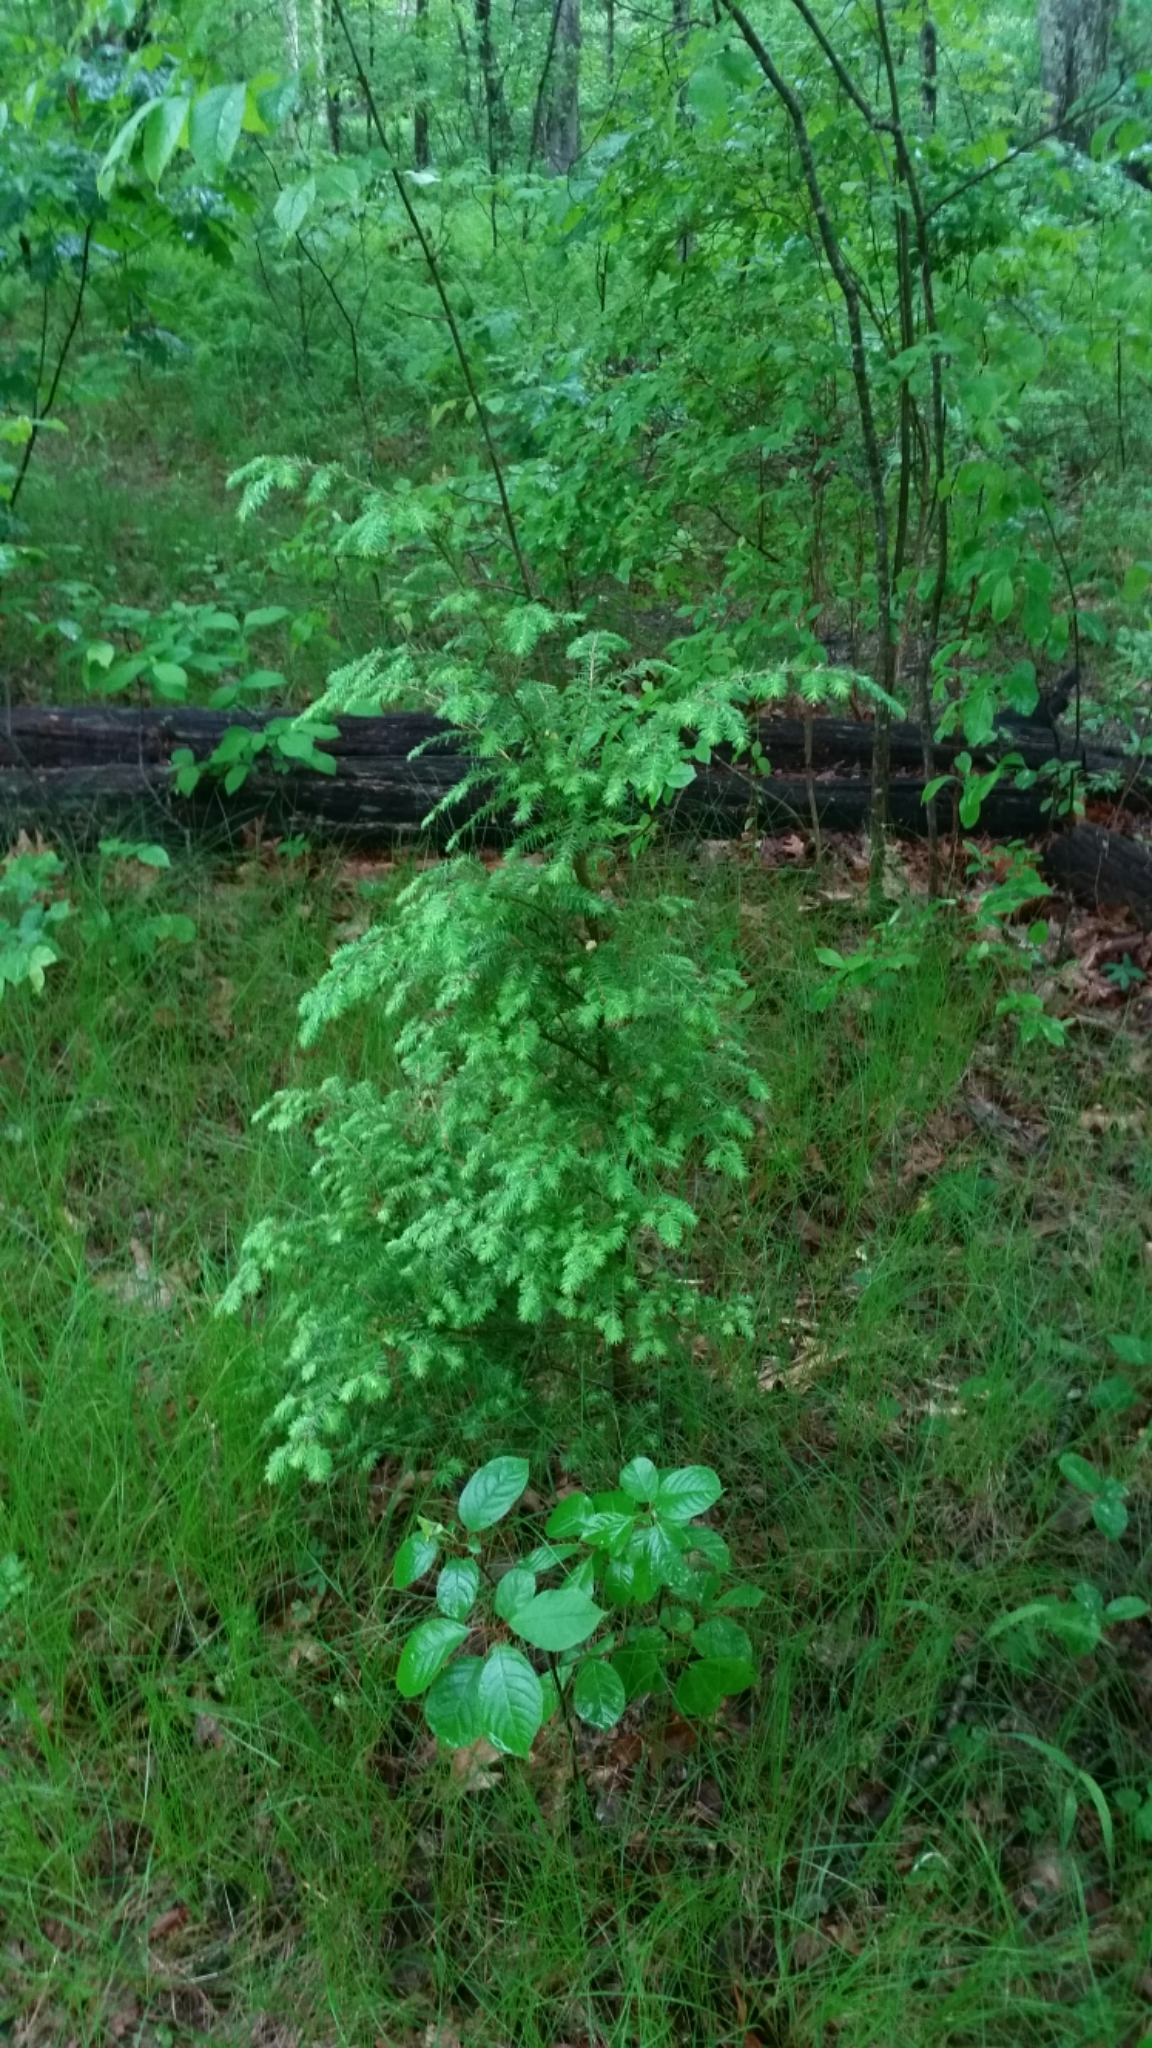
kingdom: Plantae
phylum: Tracheophyta
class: Pinopsida
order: Pinales
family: Pinaceae
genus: Tsuga
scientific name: Tsuga canadensis
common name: Eastern hemlock
